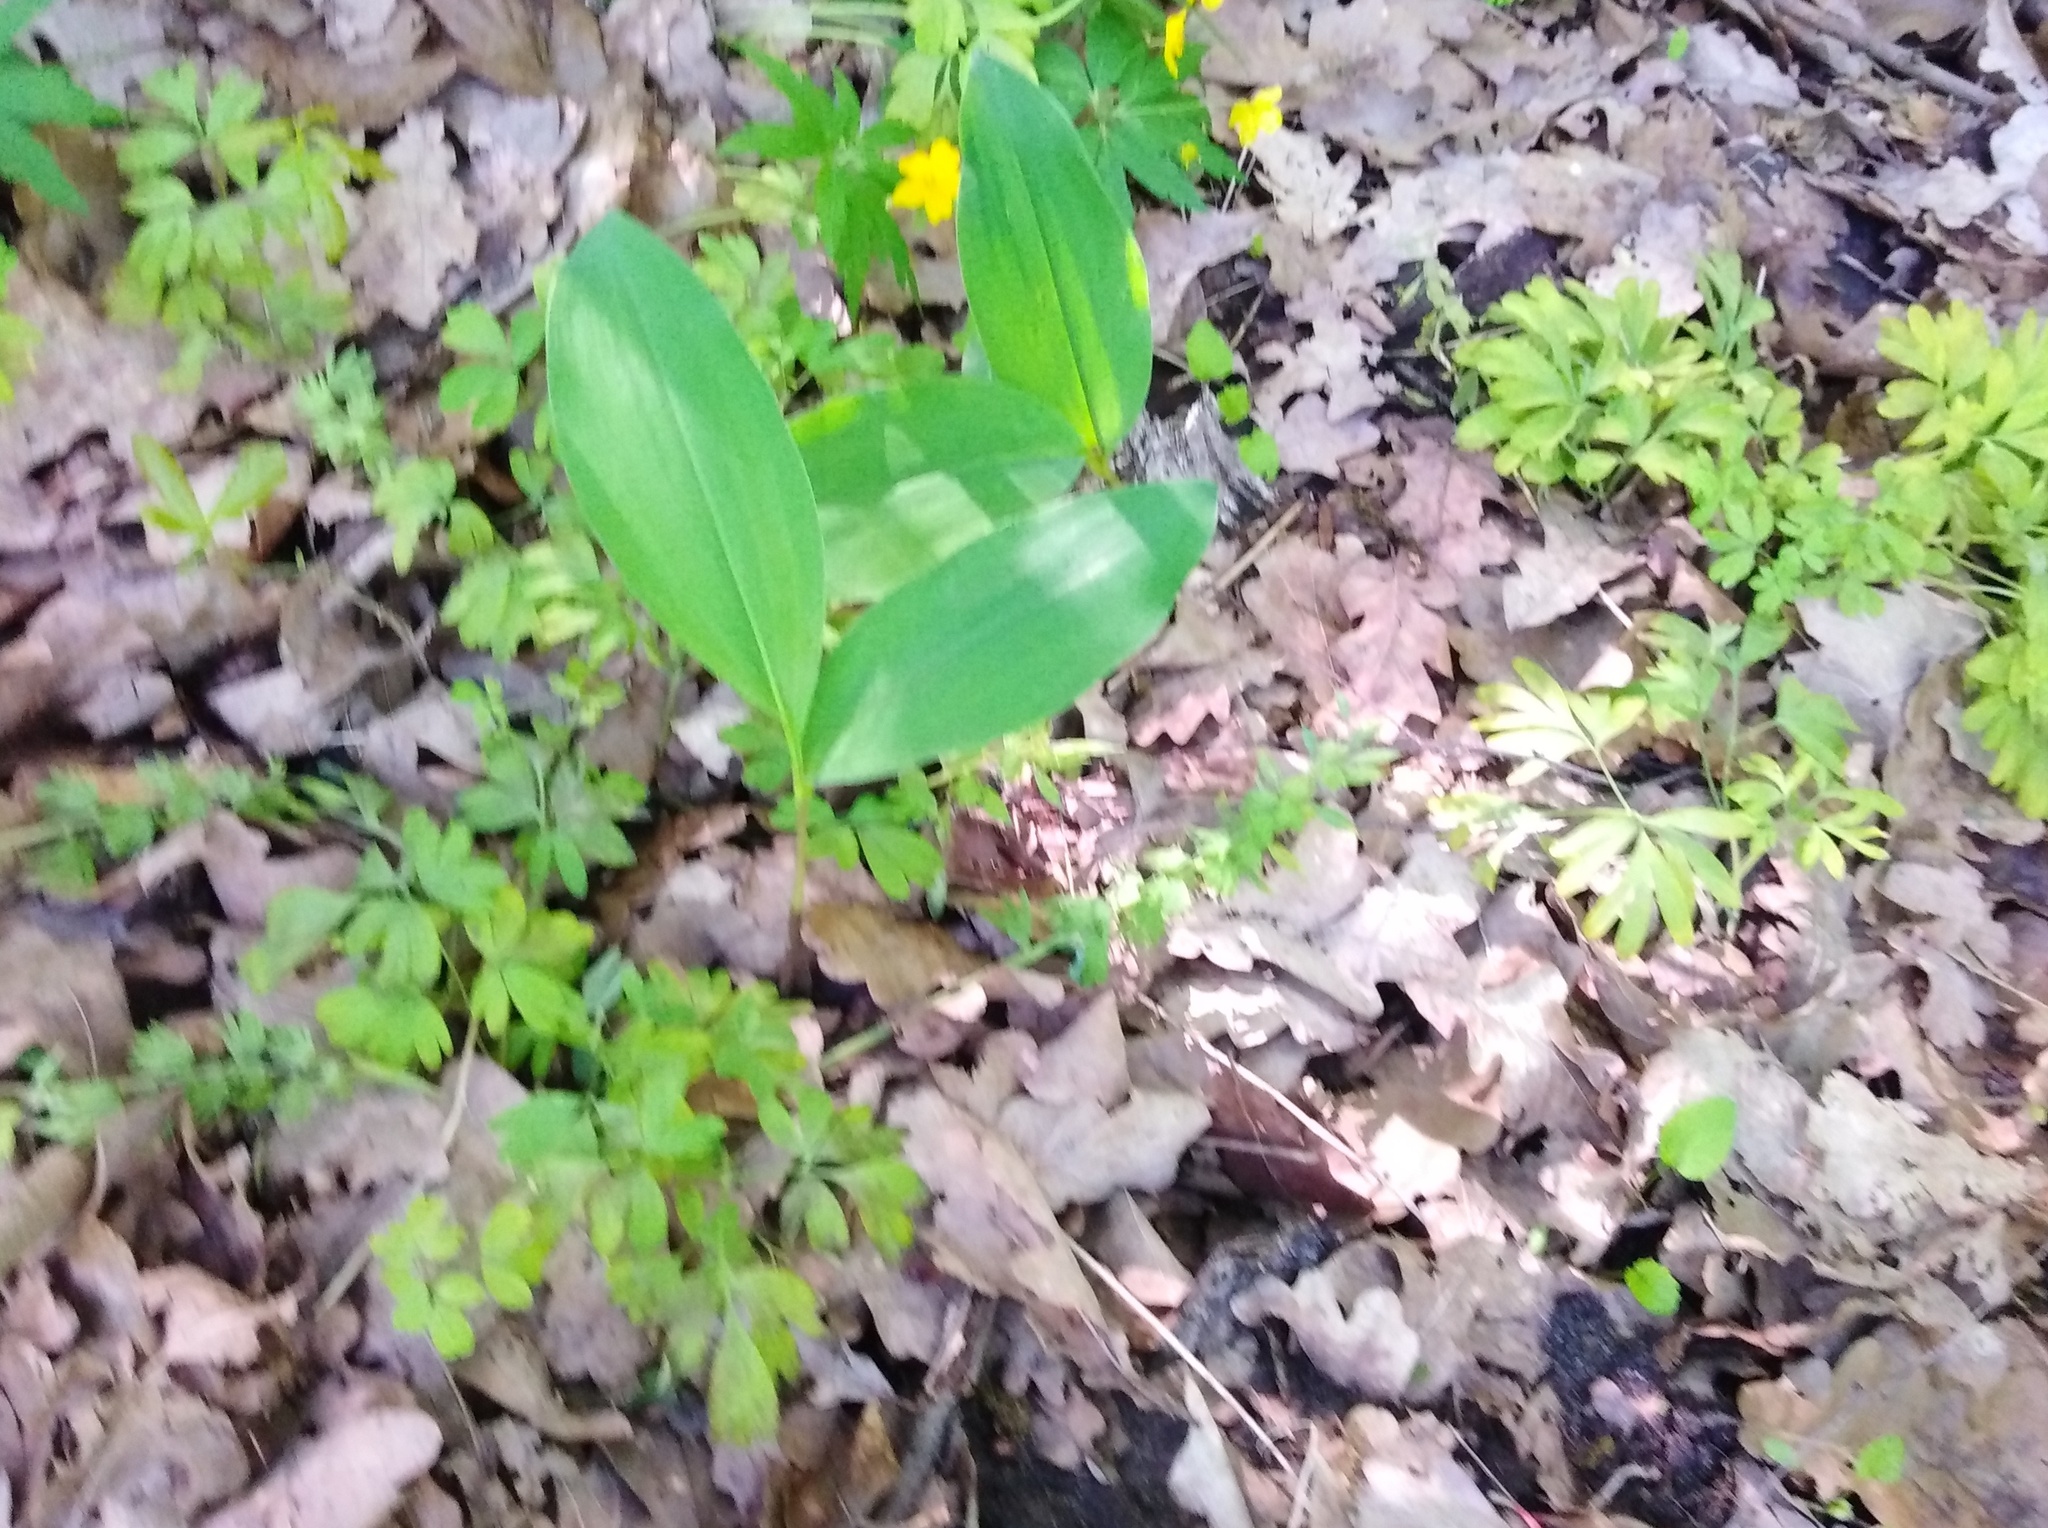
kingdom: Plantae
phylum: Tracheophyta
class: Magnoliopsida
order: Ranunculales
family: Papaveraceae
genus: Corydalis
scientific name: Corydalis solida
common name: Bird-in-a-bush
